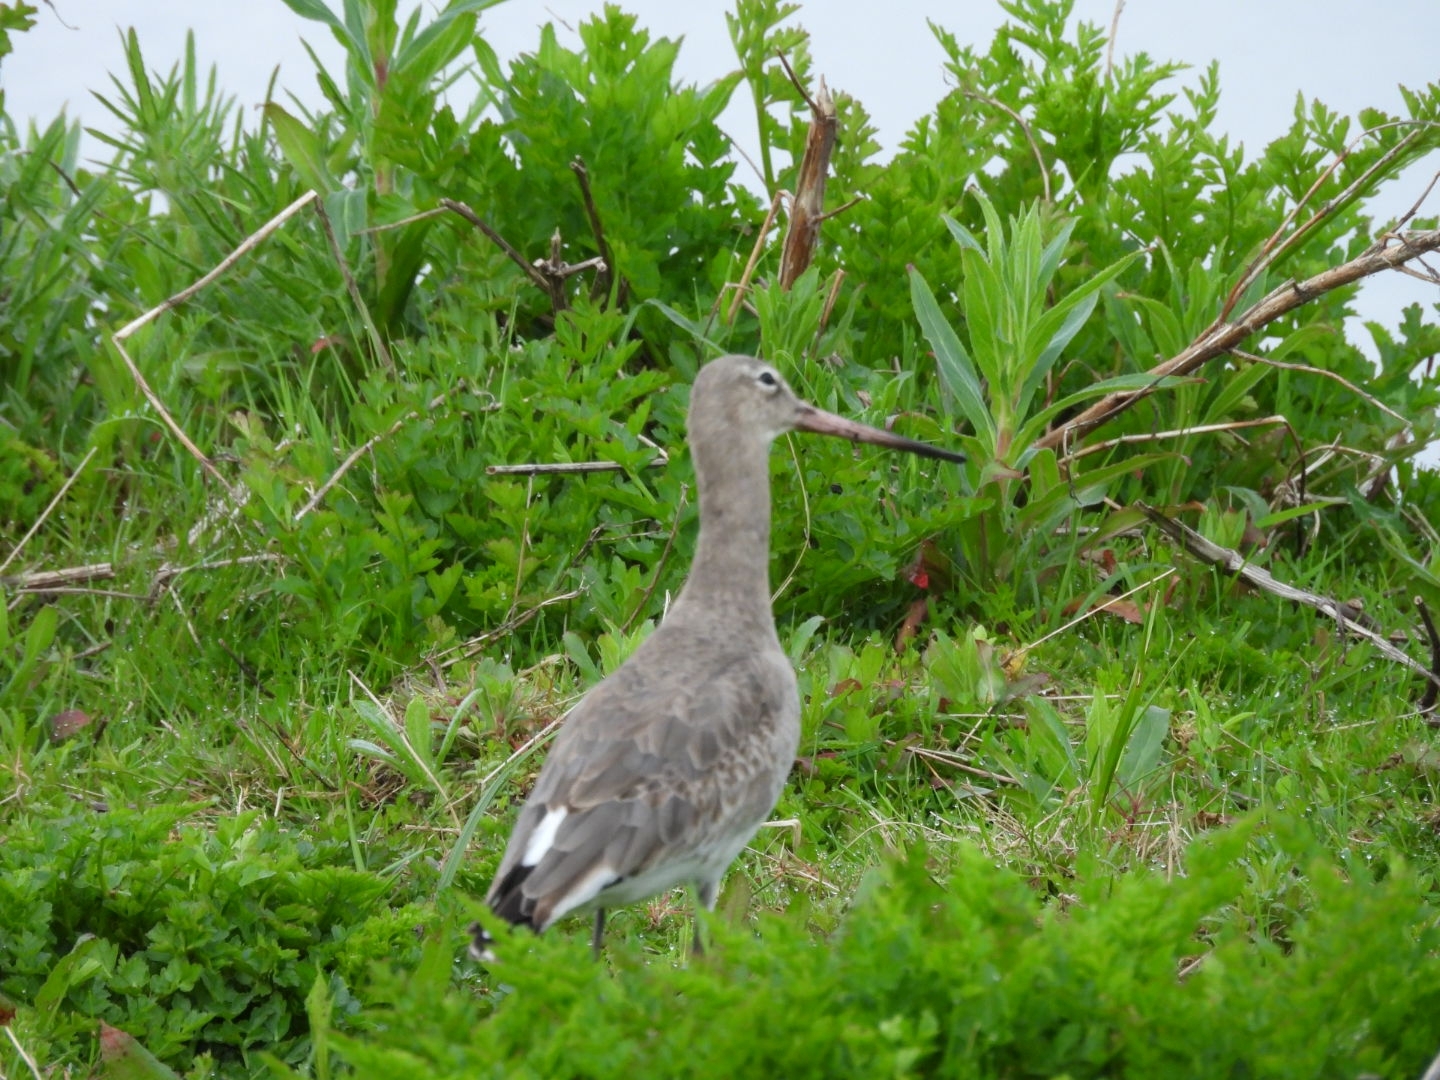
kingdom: Animalia
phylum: Chordata
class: Aves
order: Charadriiformes
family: Scolopacidae
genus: Limosa
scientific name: Limosa limosa
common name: Black-tailed godwit
